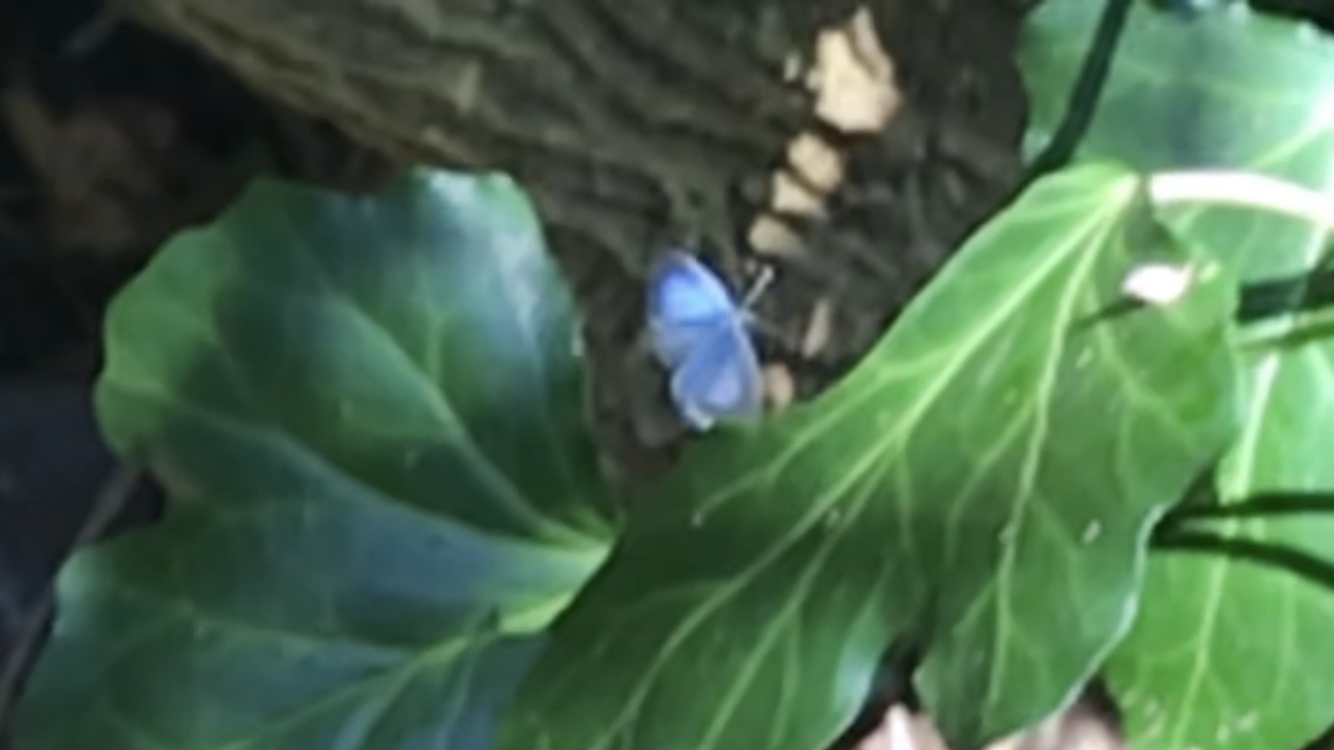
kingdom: Animalia
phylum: Arthropoda
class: Insecta
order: Lepidoptera
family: Lycaenidae
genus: Celastrina
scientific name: Celastrina argiolus
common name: Holly blue
